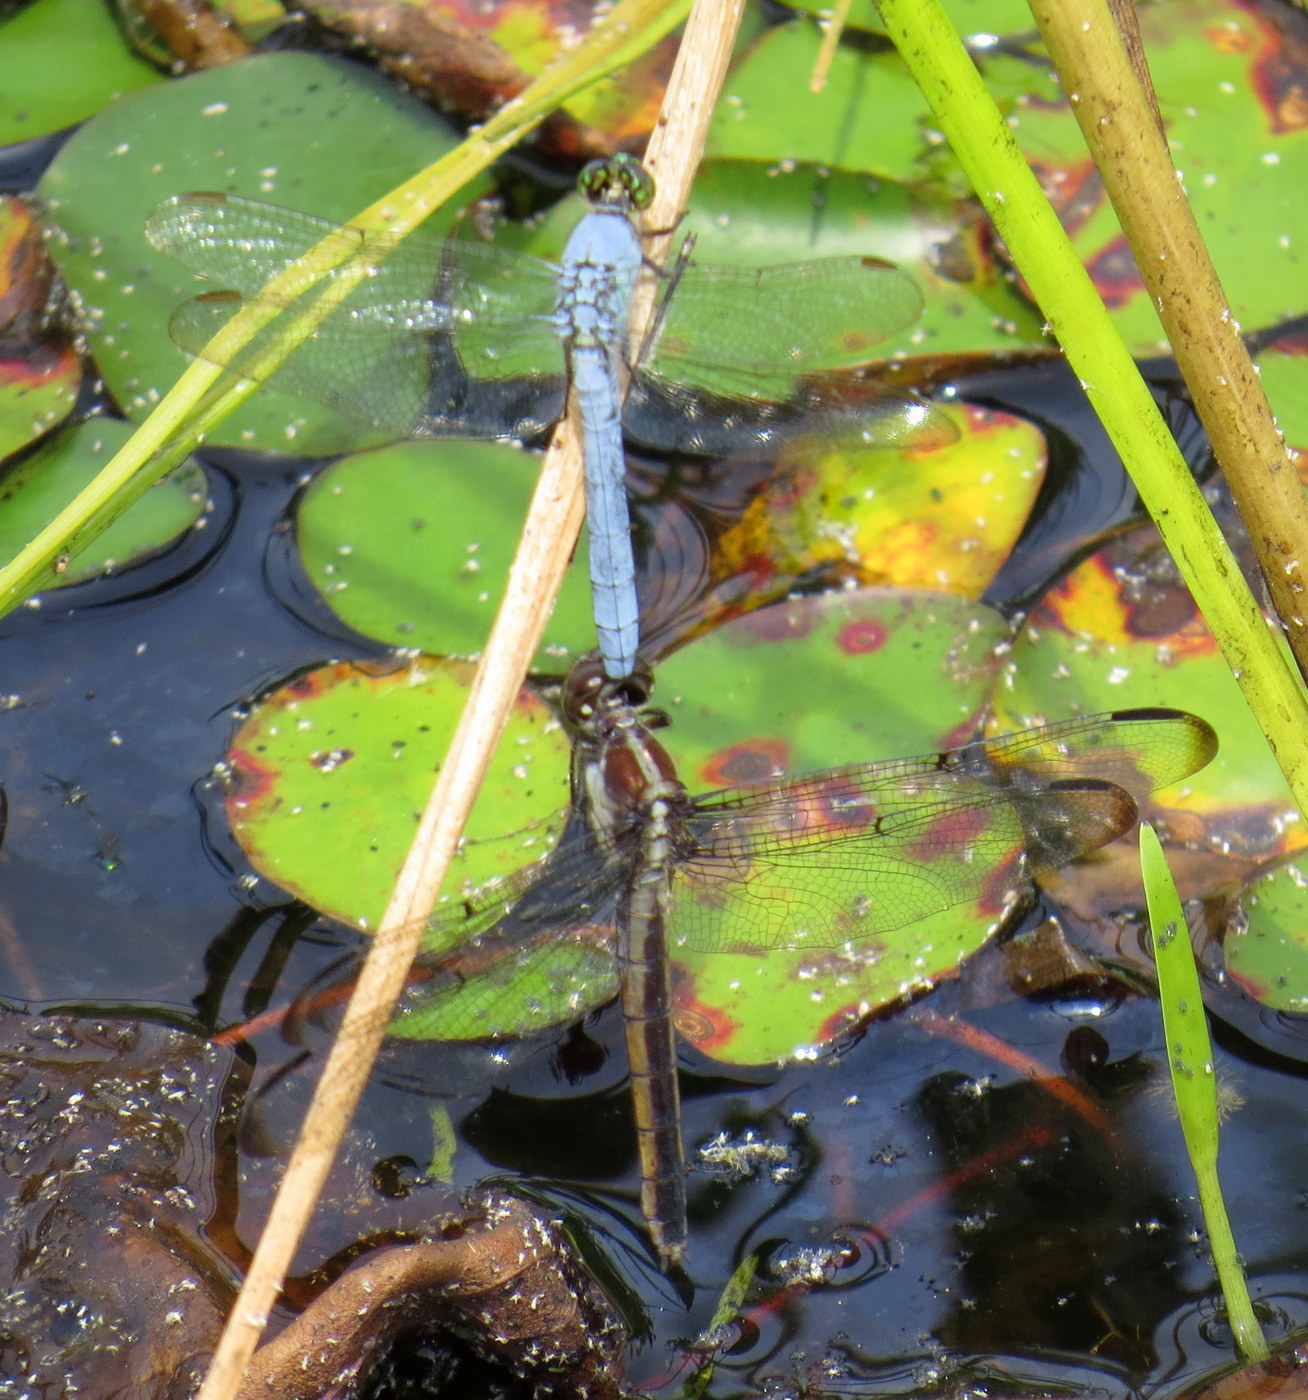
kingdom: Animalia
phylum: Arthropoda
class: Insecta
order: Odonata
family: Libellulidae
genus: Libellula
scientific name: Libellula incesta
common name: Slaty skimmer
